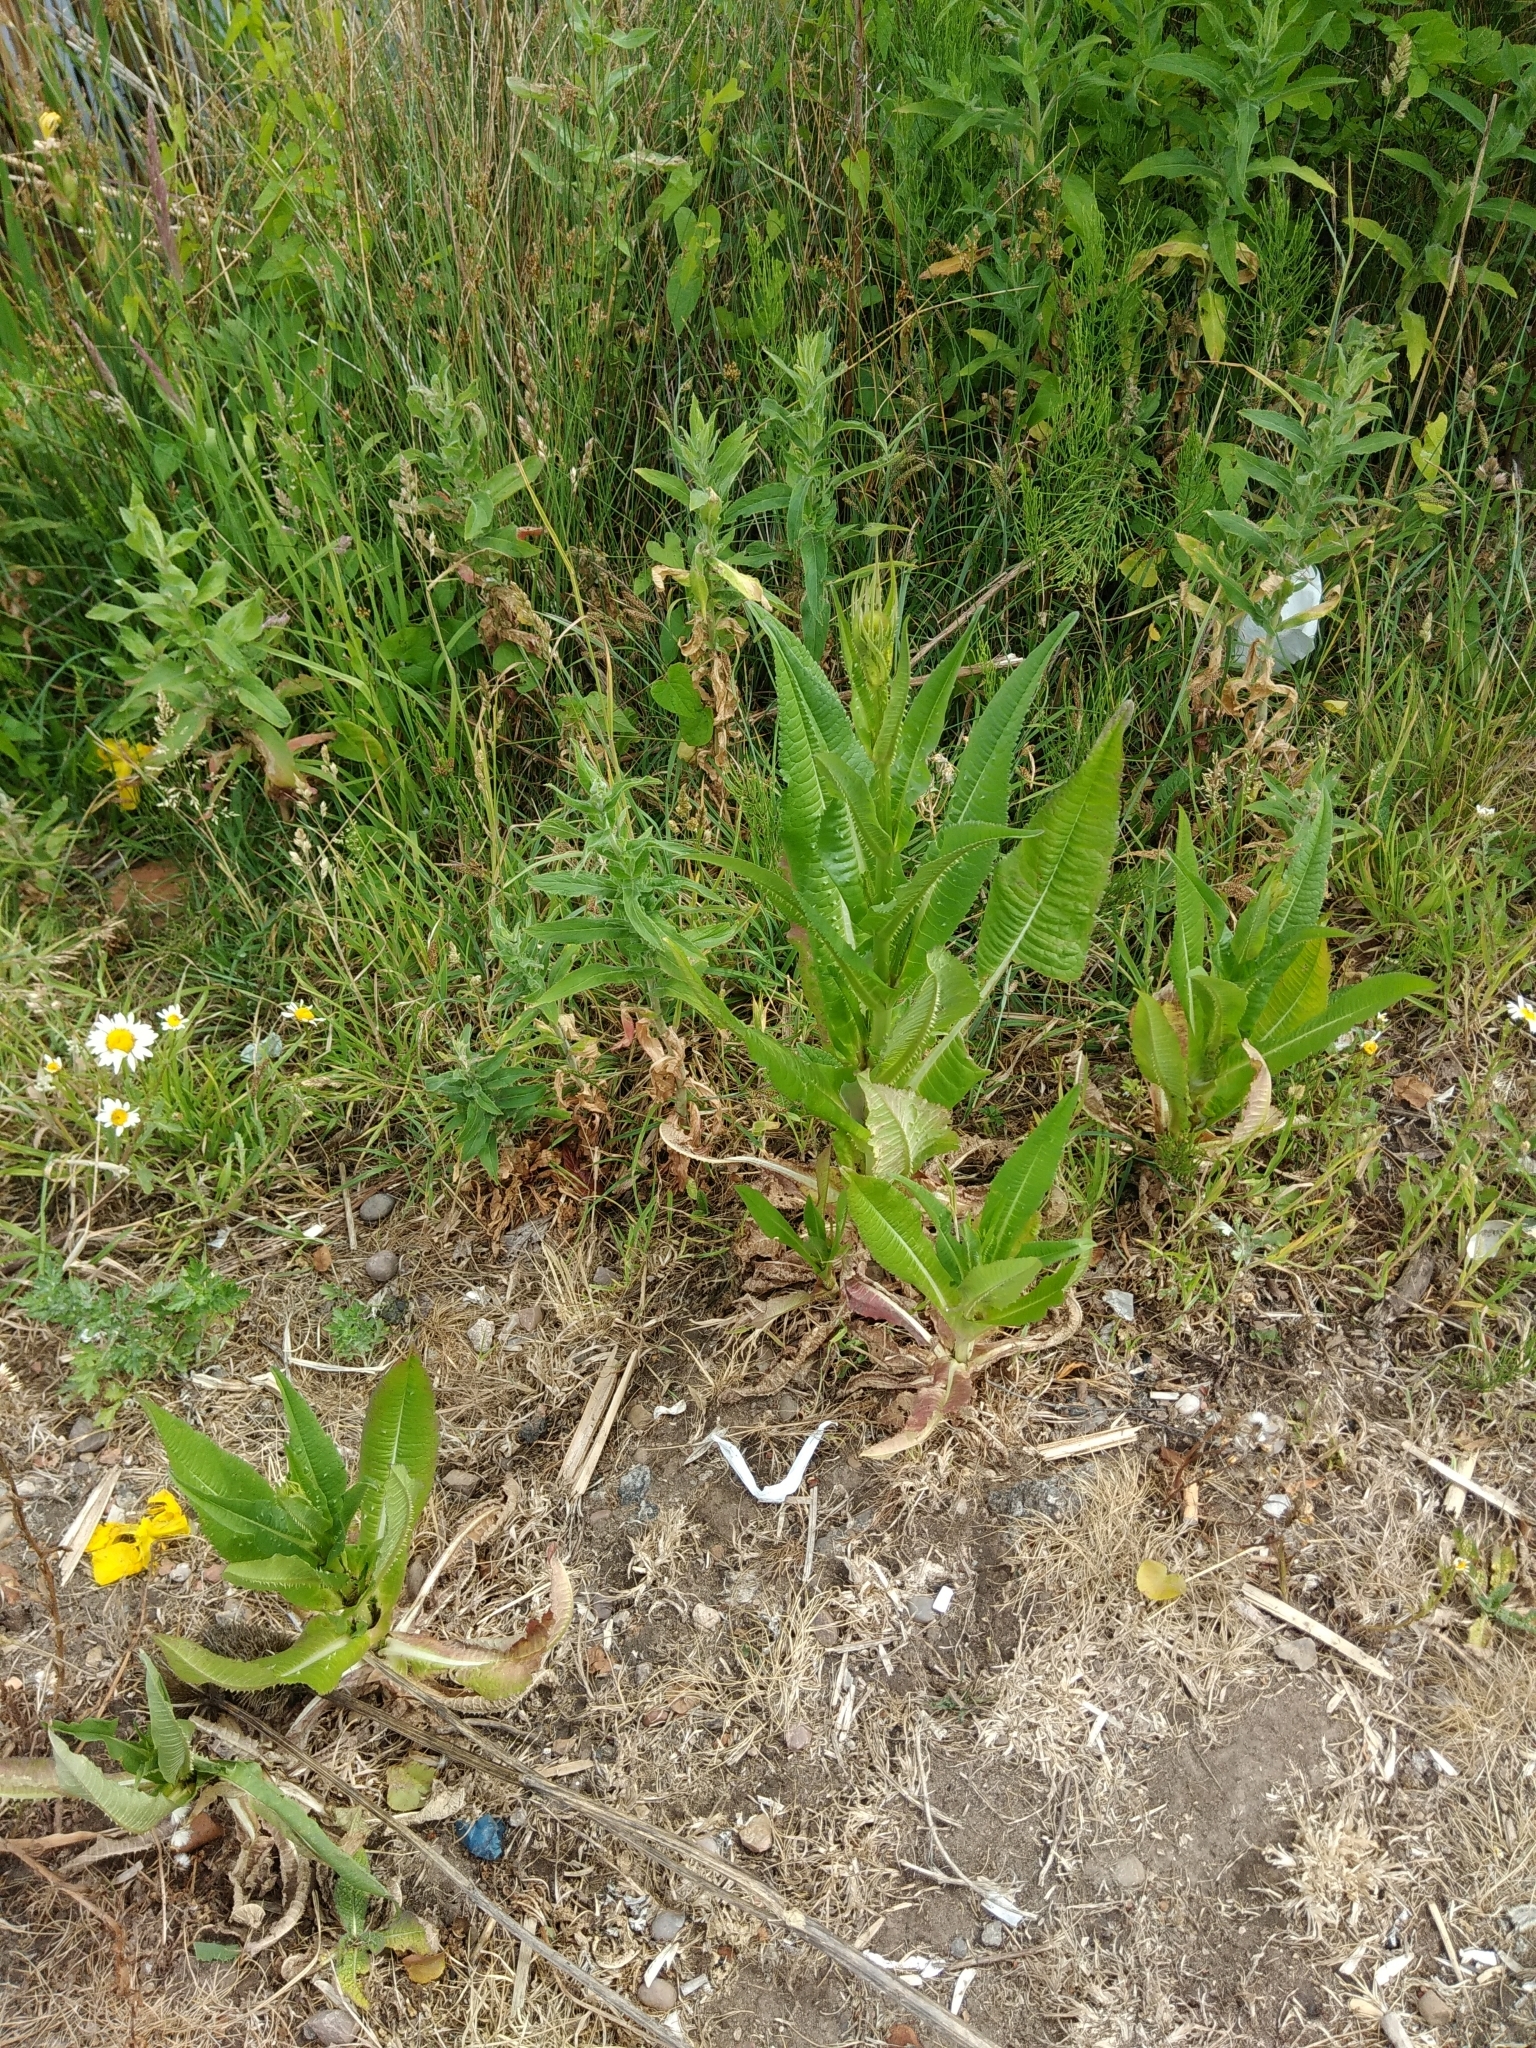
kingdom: Plantae
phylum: Tracheophyta
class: Magnoliopsida
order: Dipsacales
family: Caprifoliaceae
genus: Dipsacus
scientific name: Dipsacus fullonum
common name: Teasel
